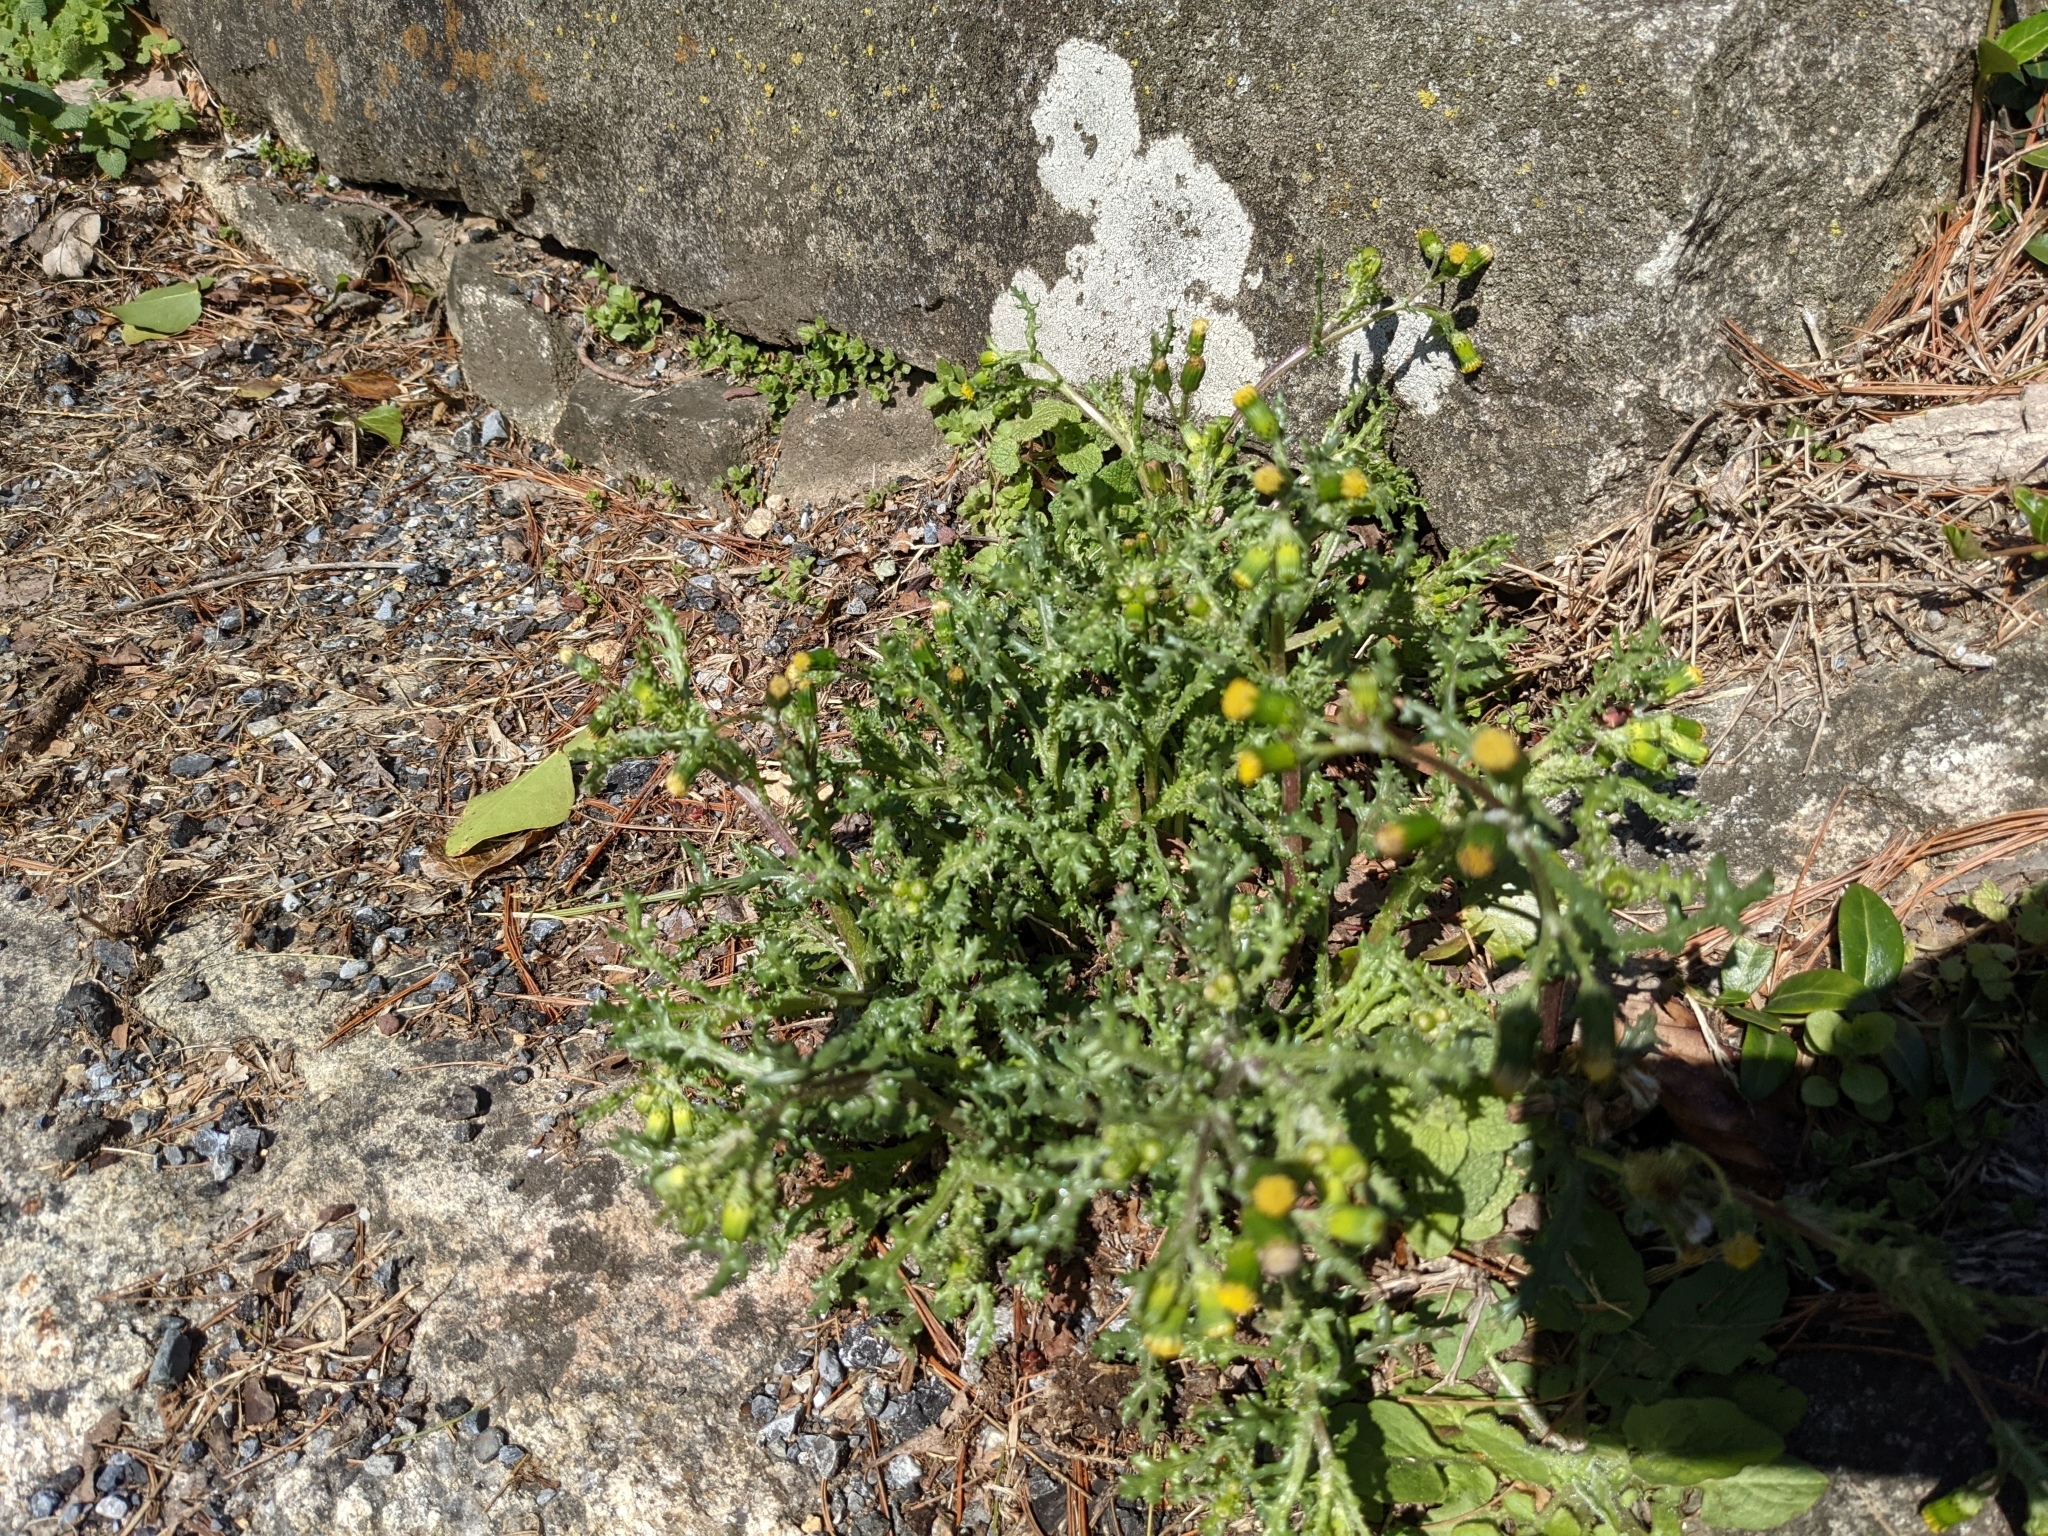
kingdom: Plantae
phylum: Tracheophyta
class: Magnoliopsida
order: Asterales
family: Asteraceae
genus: Senecio
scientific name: Senecio vulgaris
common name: Old-man-in-the-spring
